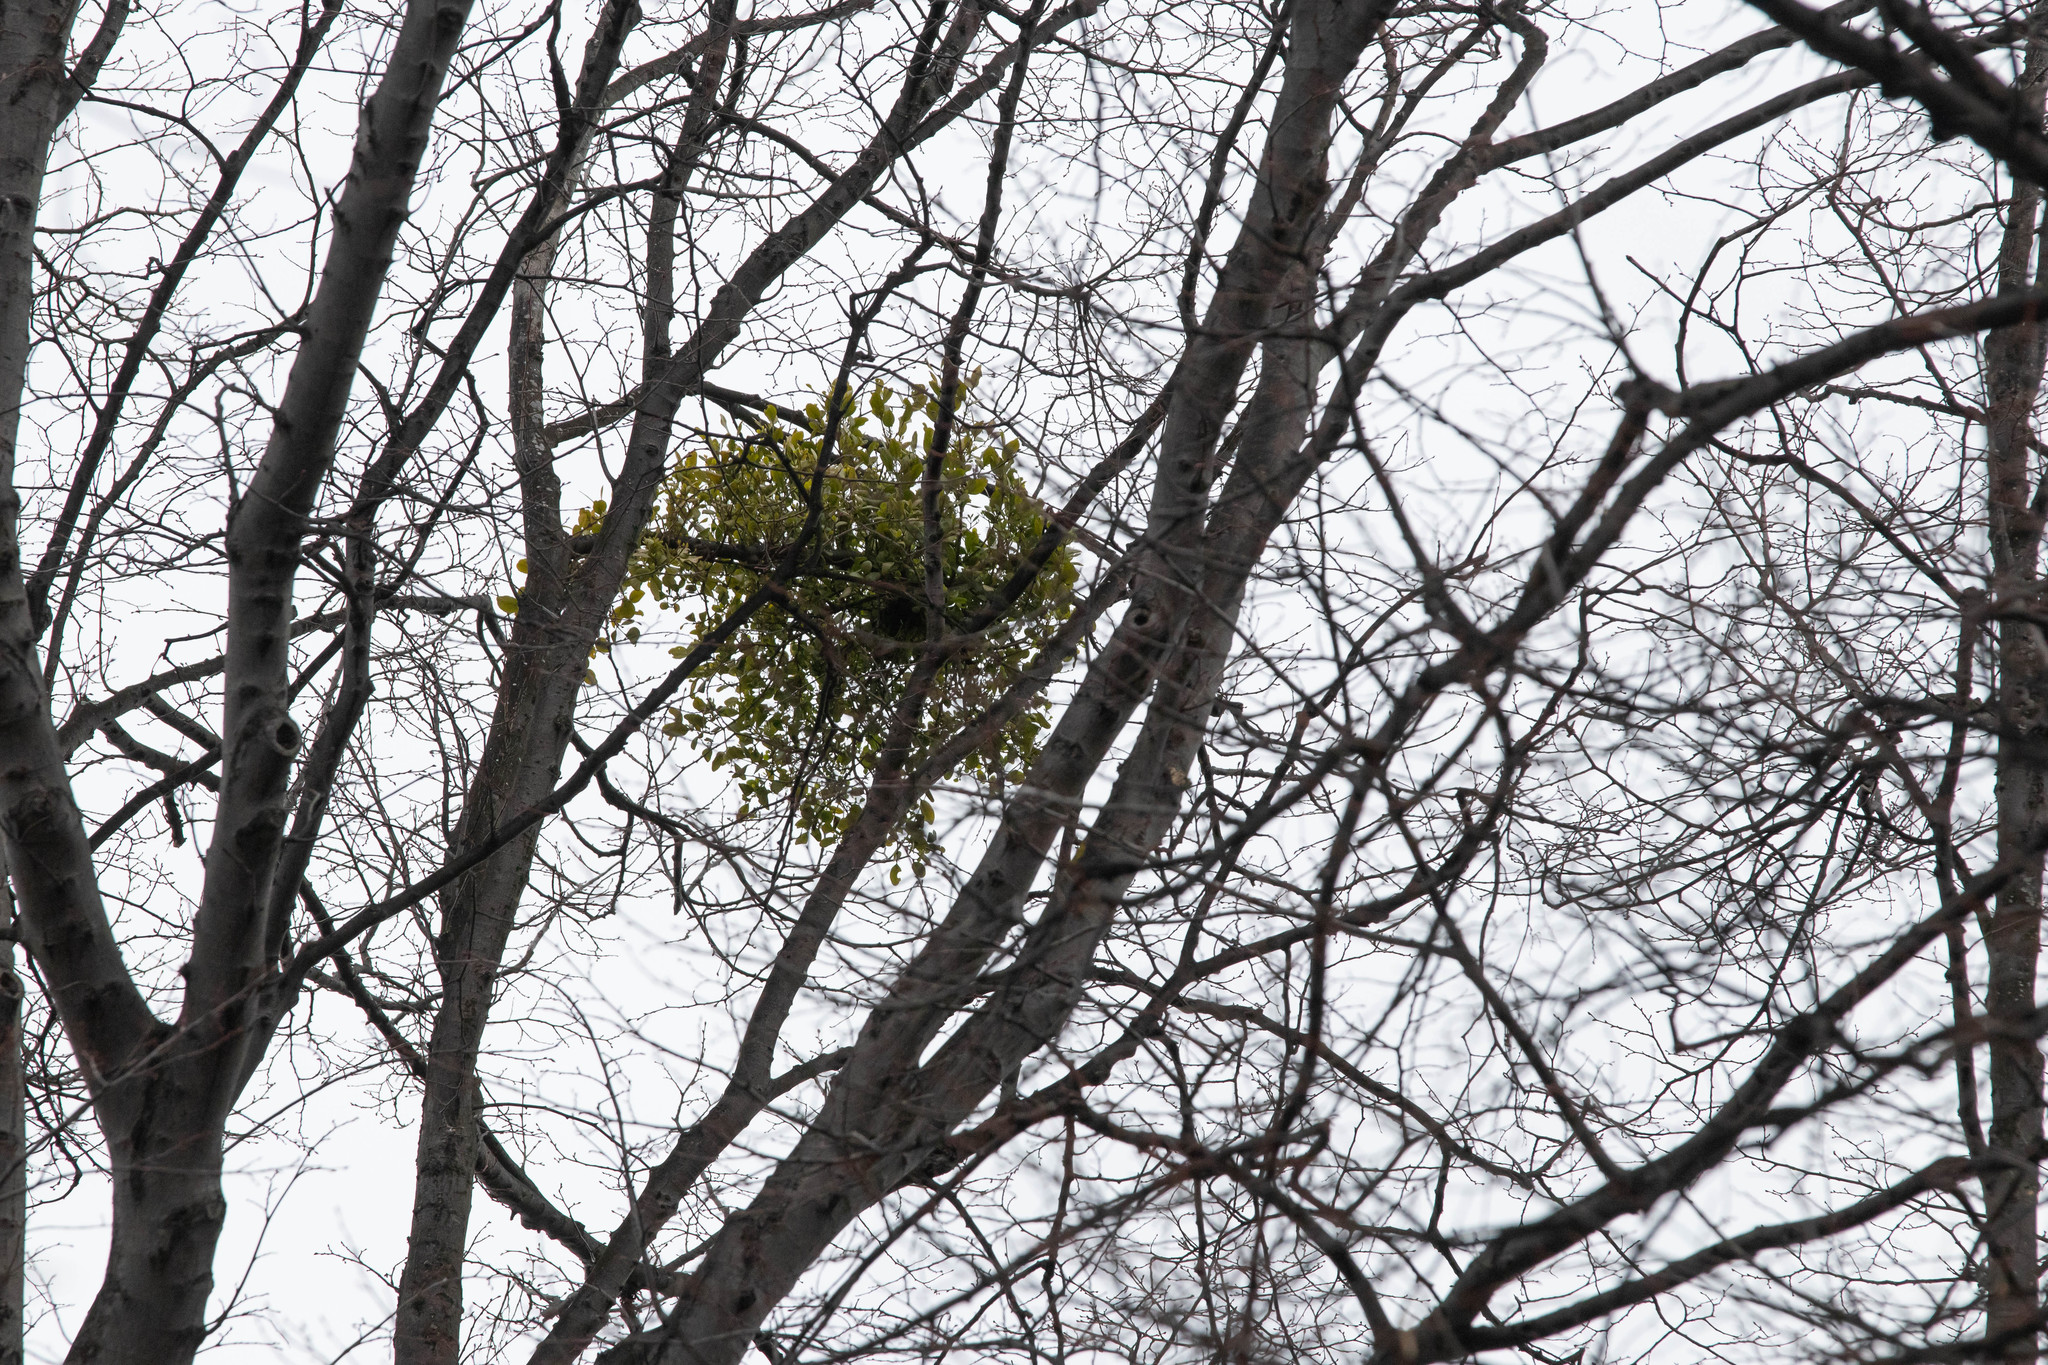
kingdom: Plantae
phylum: Tracheophyta
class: Magnoliopsida
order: Santalales
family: Loranthaceae
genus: Ileostylus
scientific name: Ileostylus micranthus
